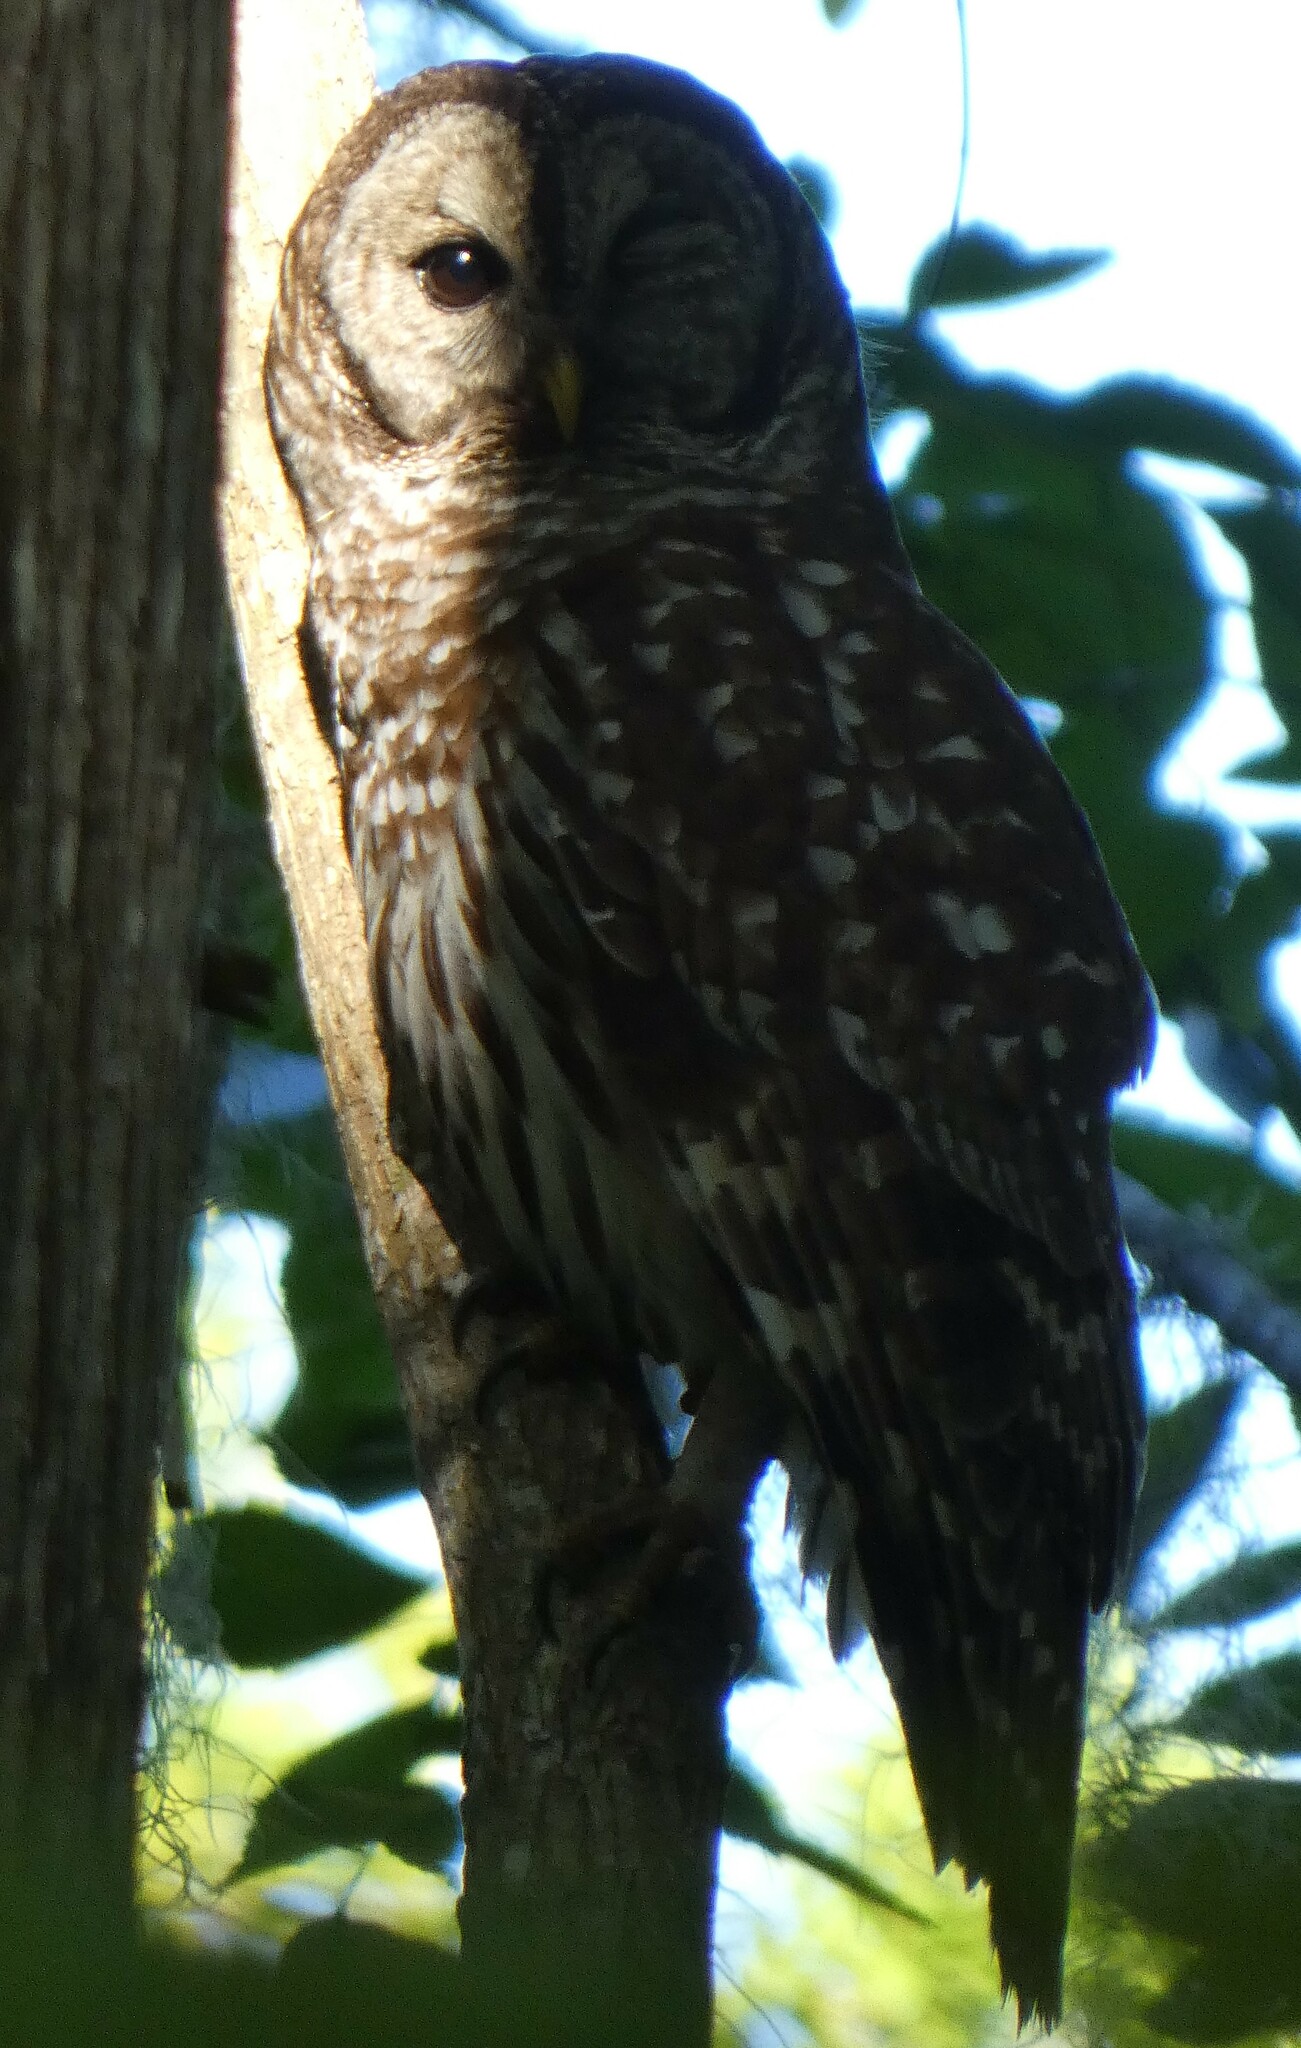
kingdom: Animalia
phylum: Chordata
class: Aves
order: Strigiformes
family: Strigidae
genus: Strix
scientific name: Strix varia
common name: Barred owl
